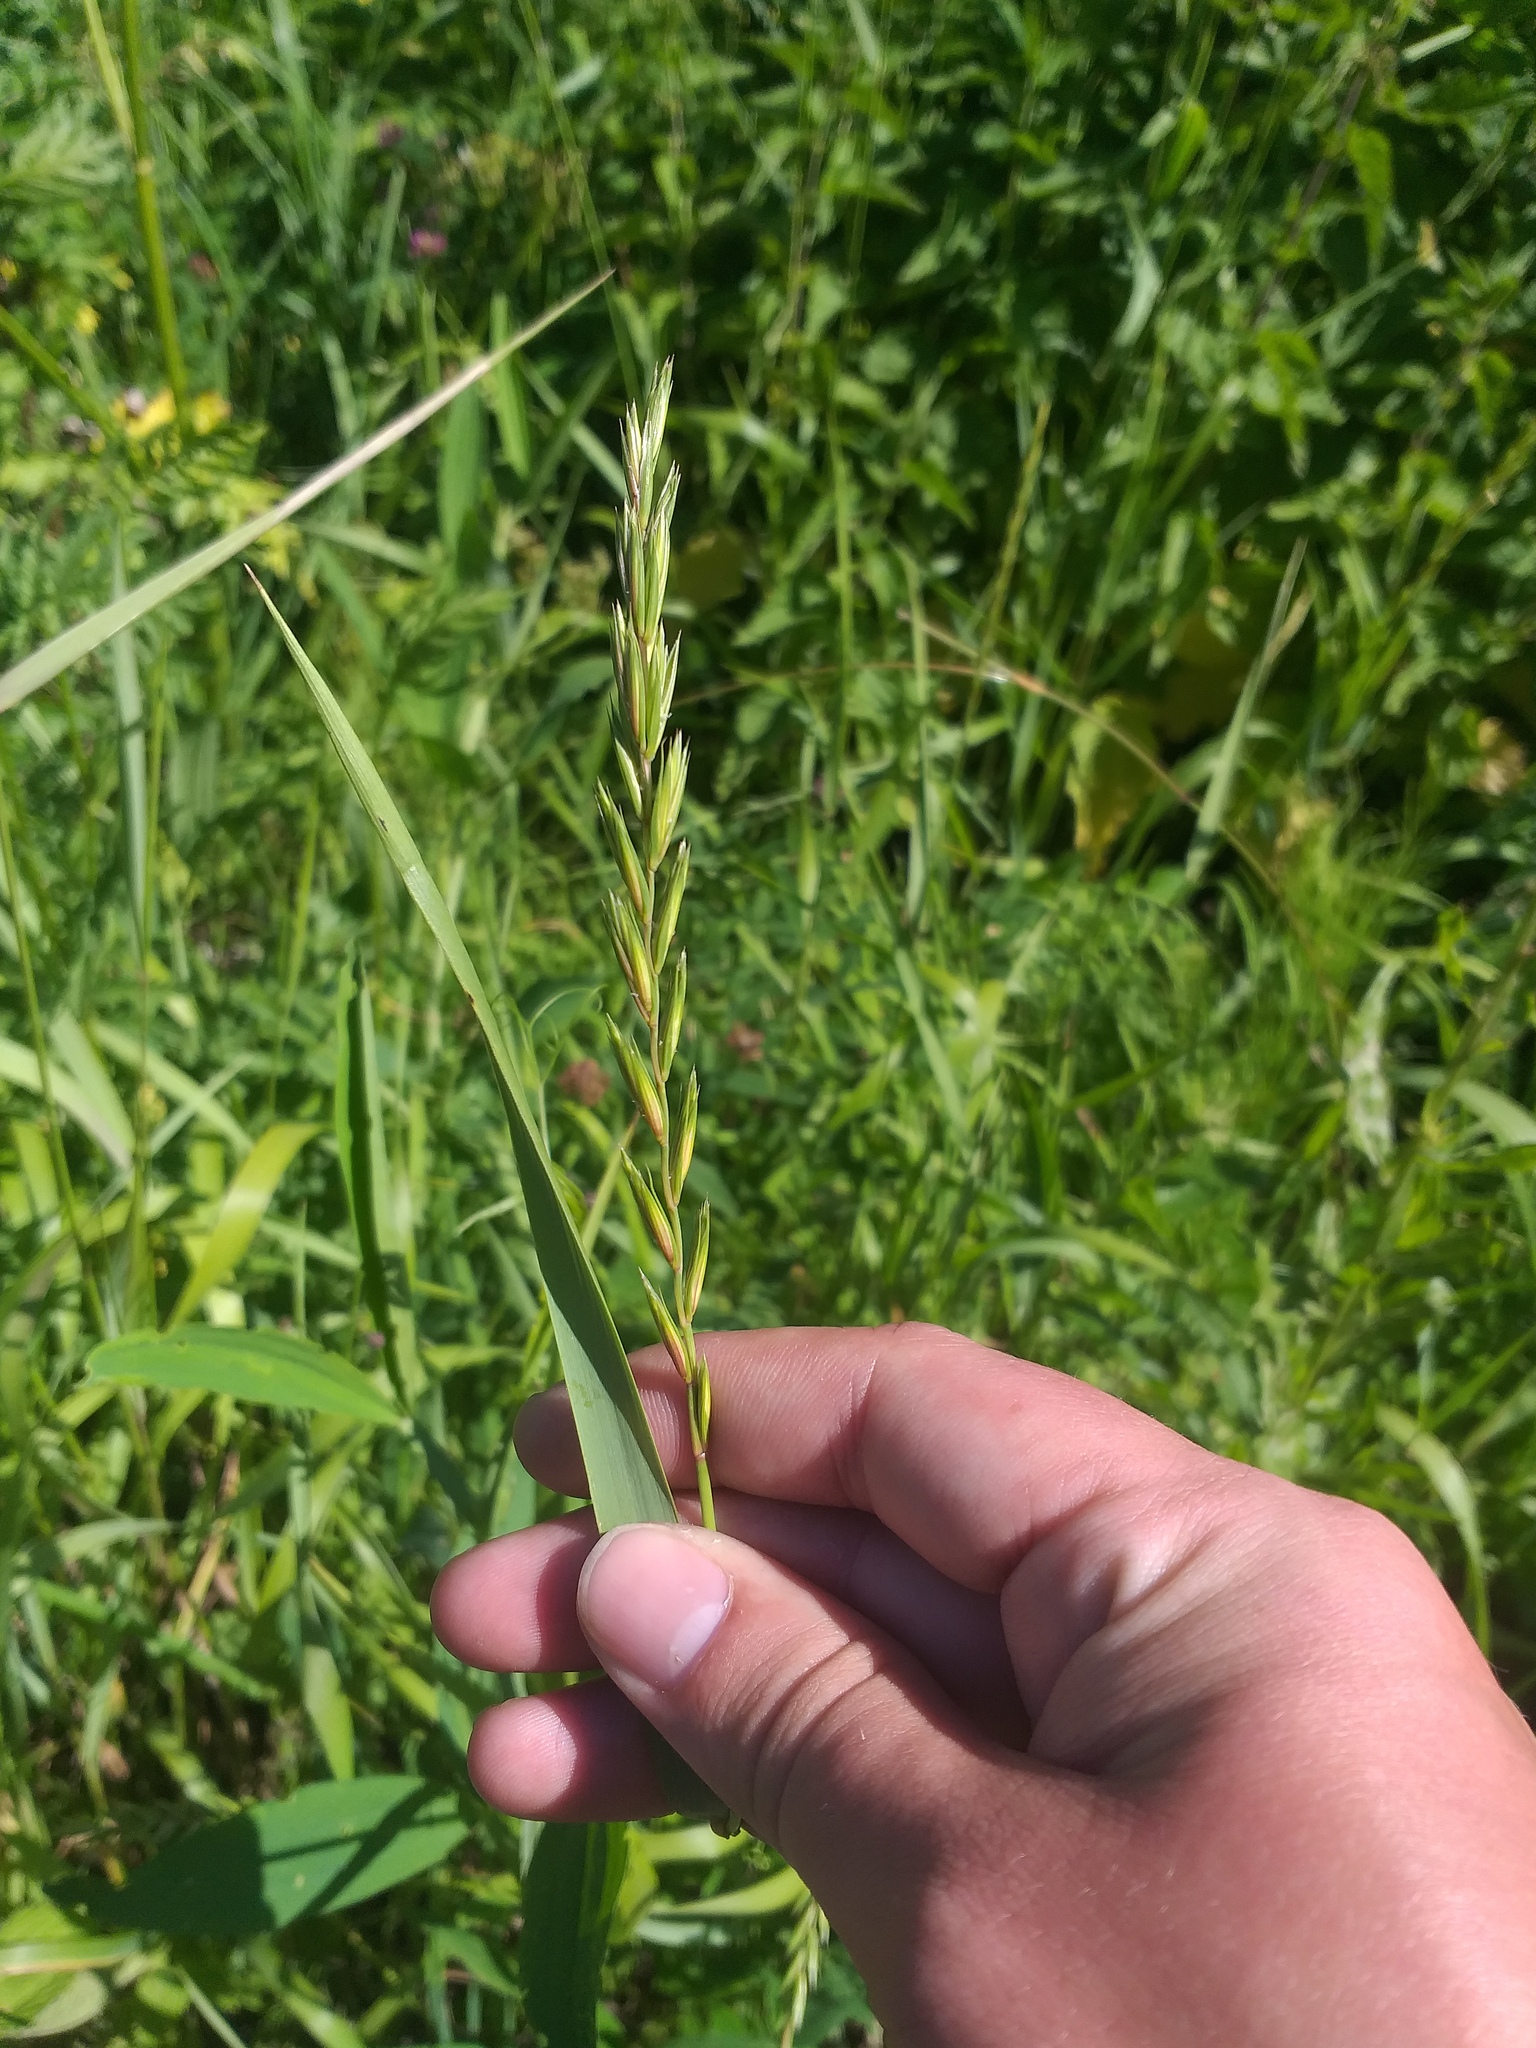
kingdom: Plantae
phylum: Tracheophyta
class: Liliopsida
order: Poales
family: Poaceae
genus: Elymus
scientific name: Elymus repens
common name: Quackgrass
